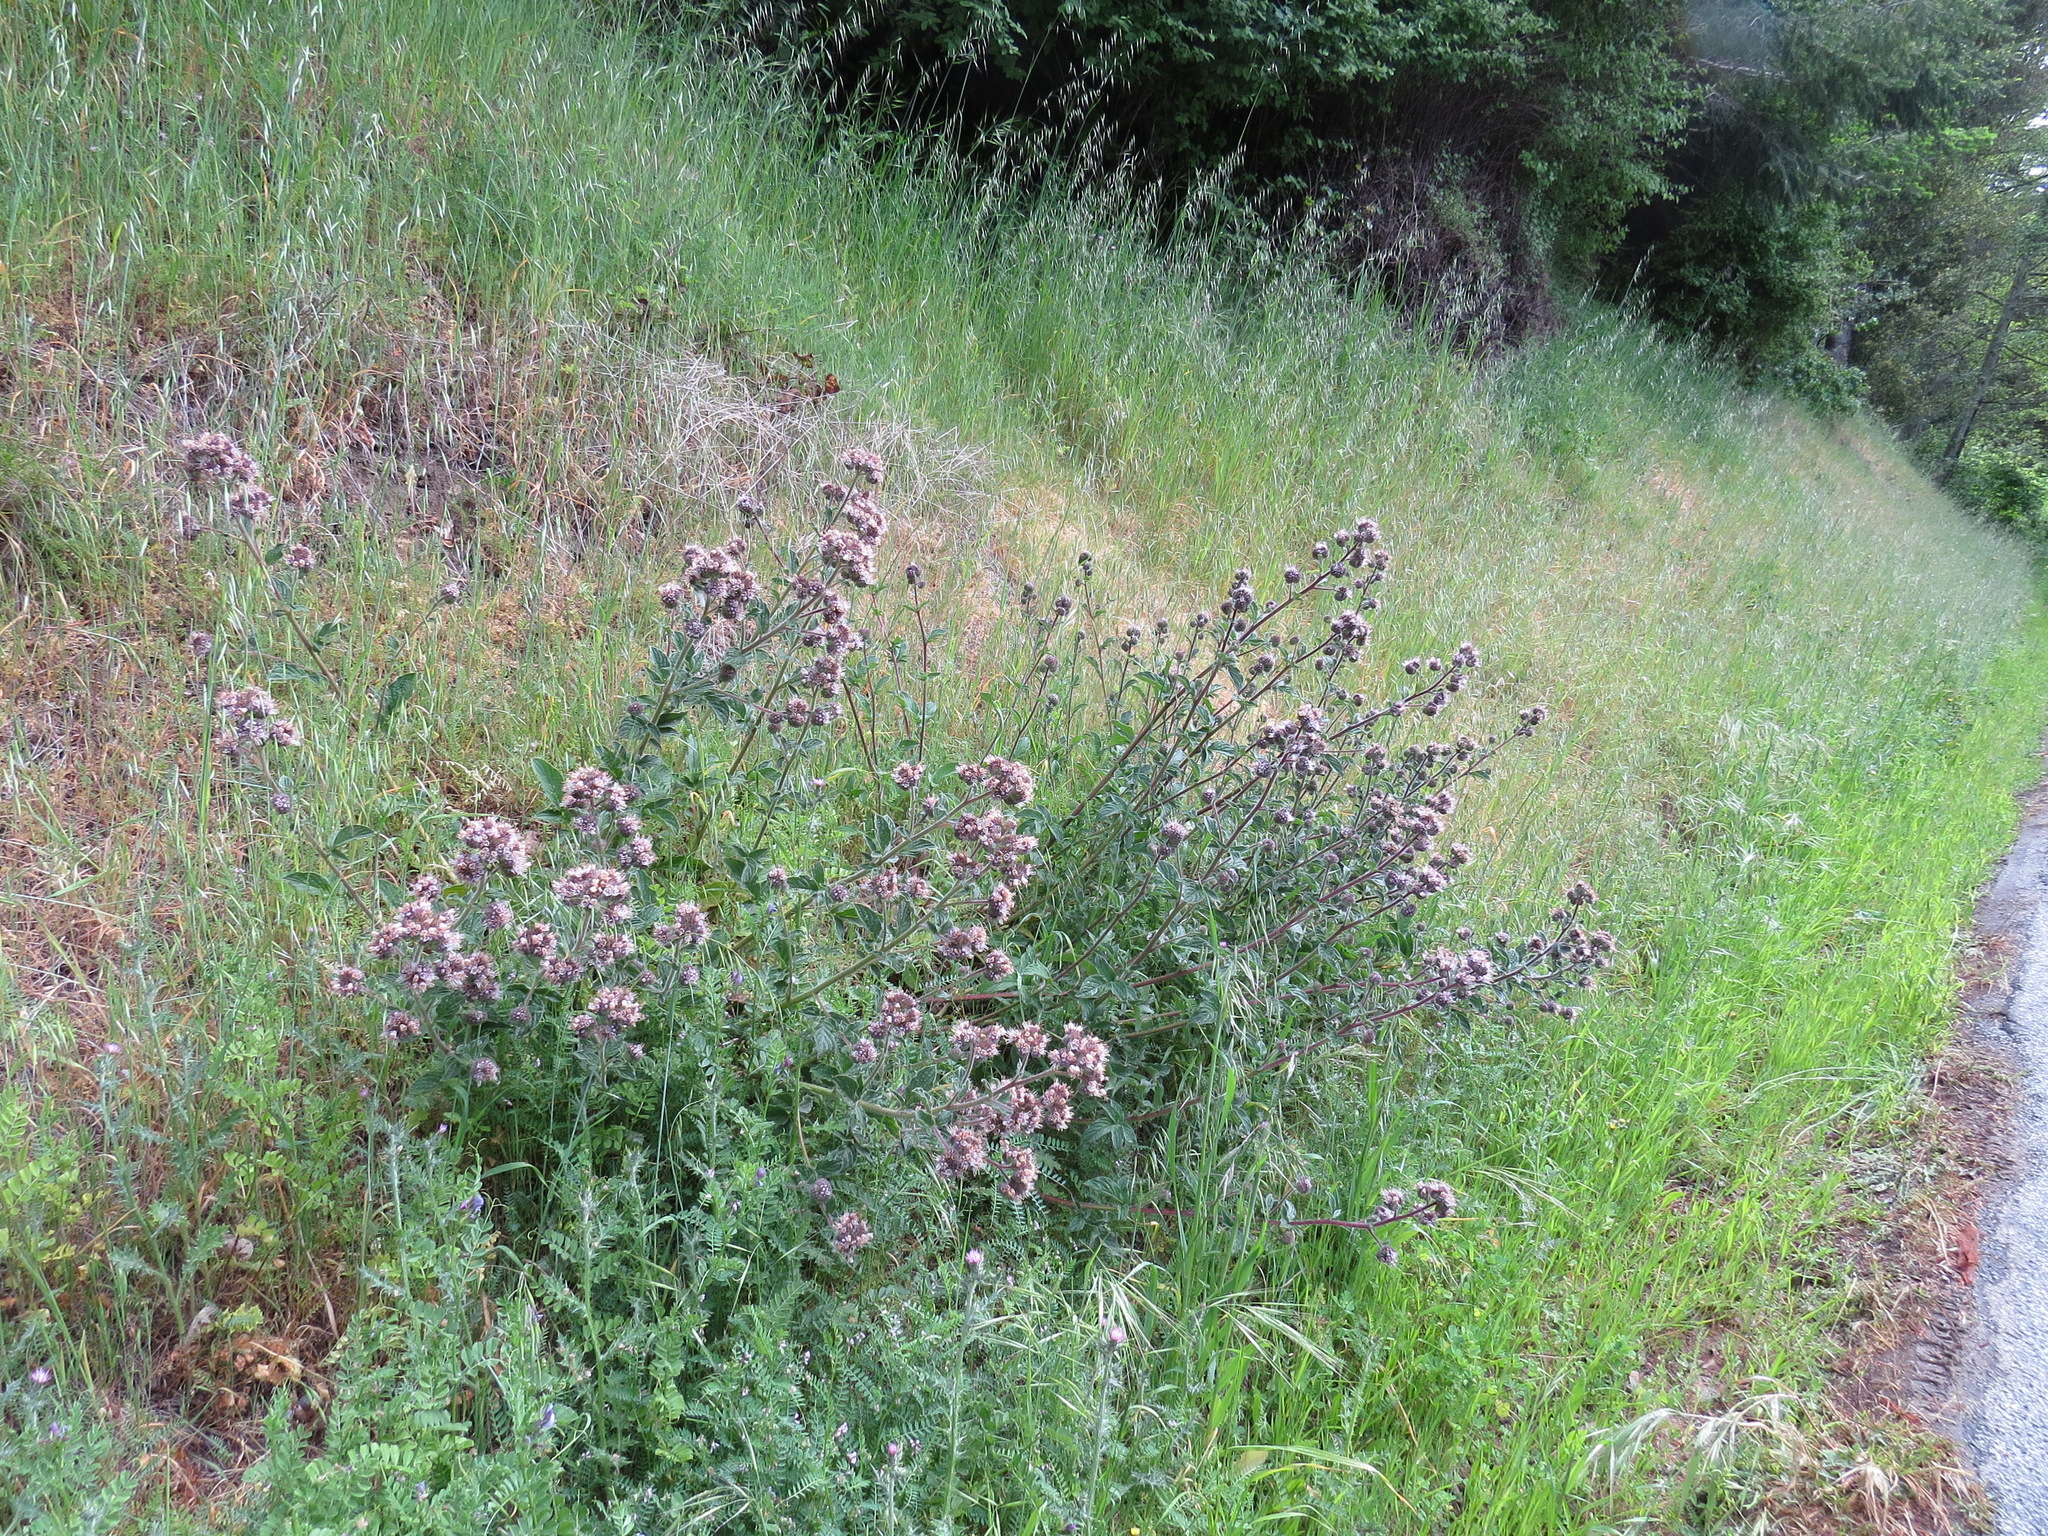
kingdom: Plantae
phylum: Tracheophyta
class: Magnoliopsida
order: Boraginales
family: Hydrophyllaceae
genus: Phacelia
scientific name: Phacelia californica
